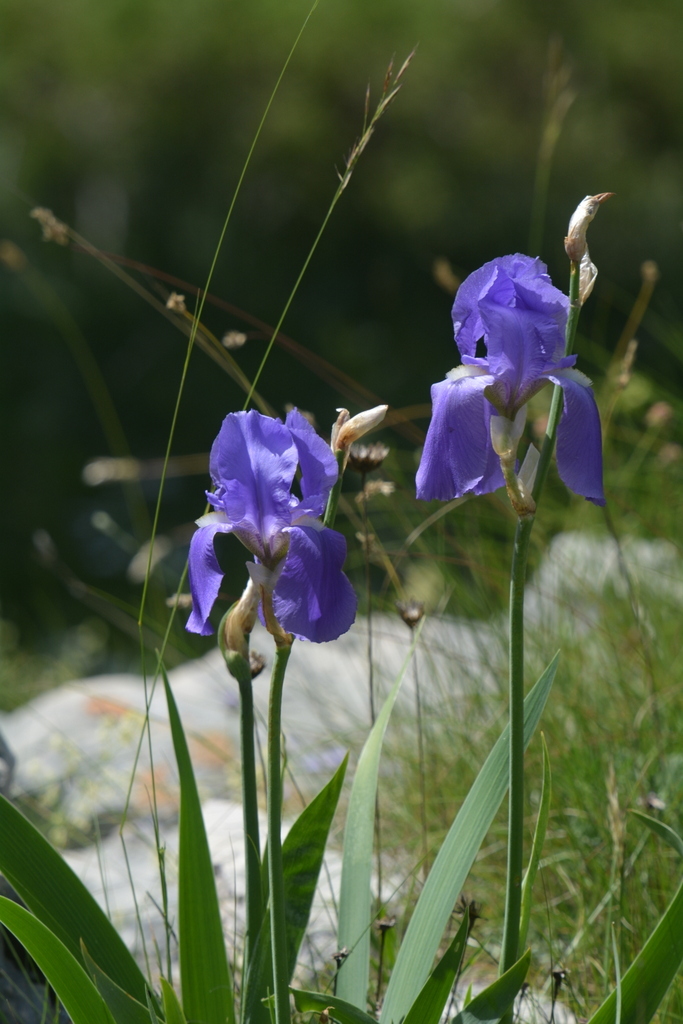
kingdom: Plantae
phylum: Tracheophyta
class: Liliopsida
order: Asparagales
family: Iridaceae
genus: Iris
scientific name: Iris pallida
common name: Sweet iris
